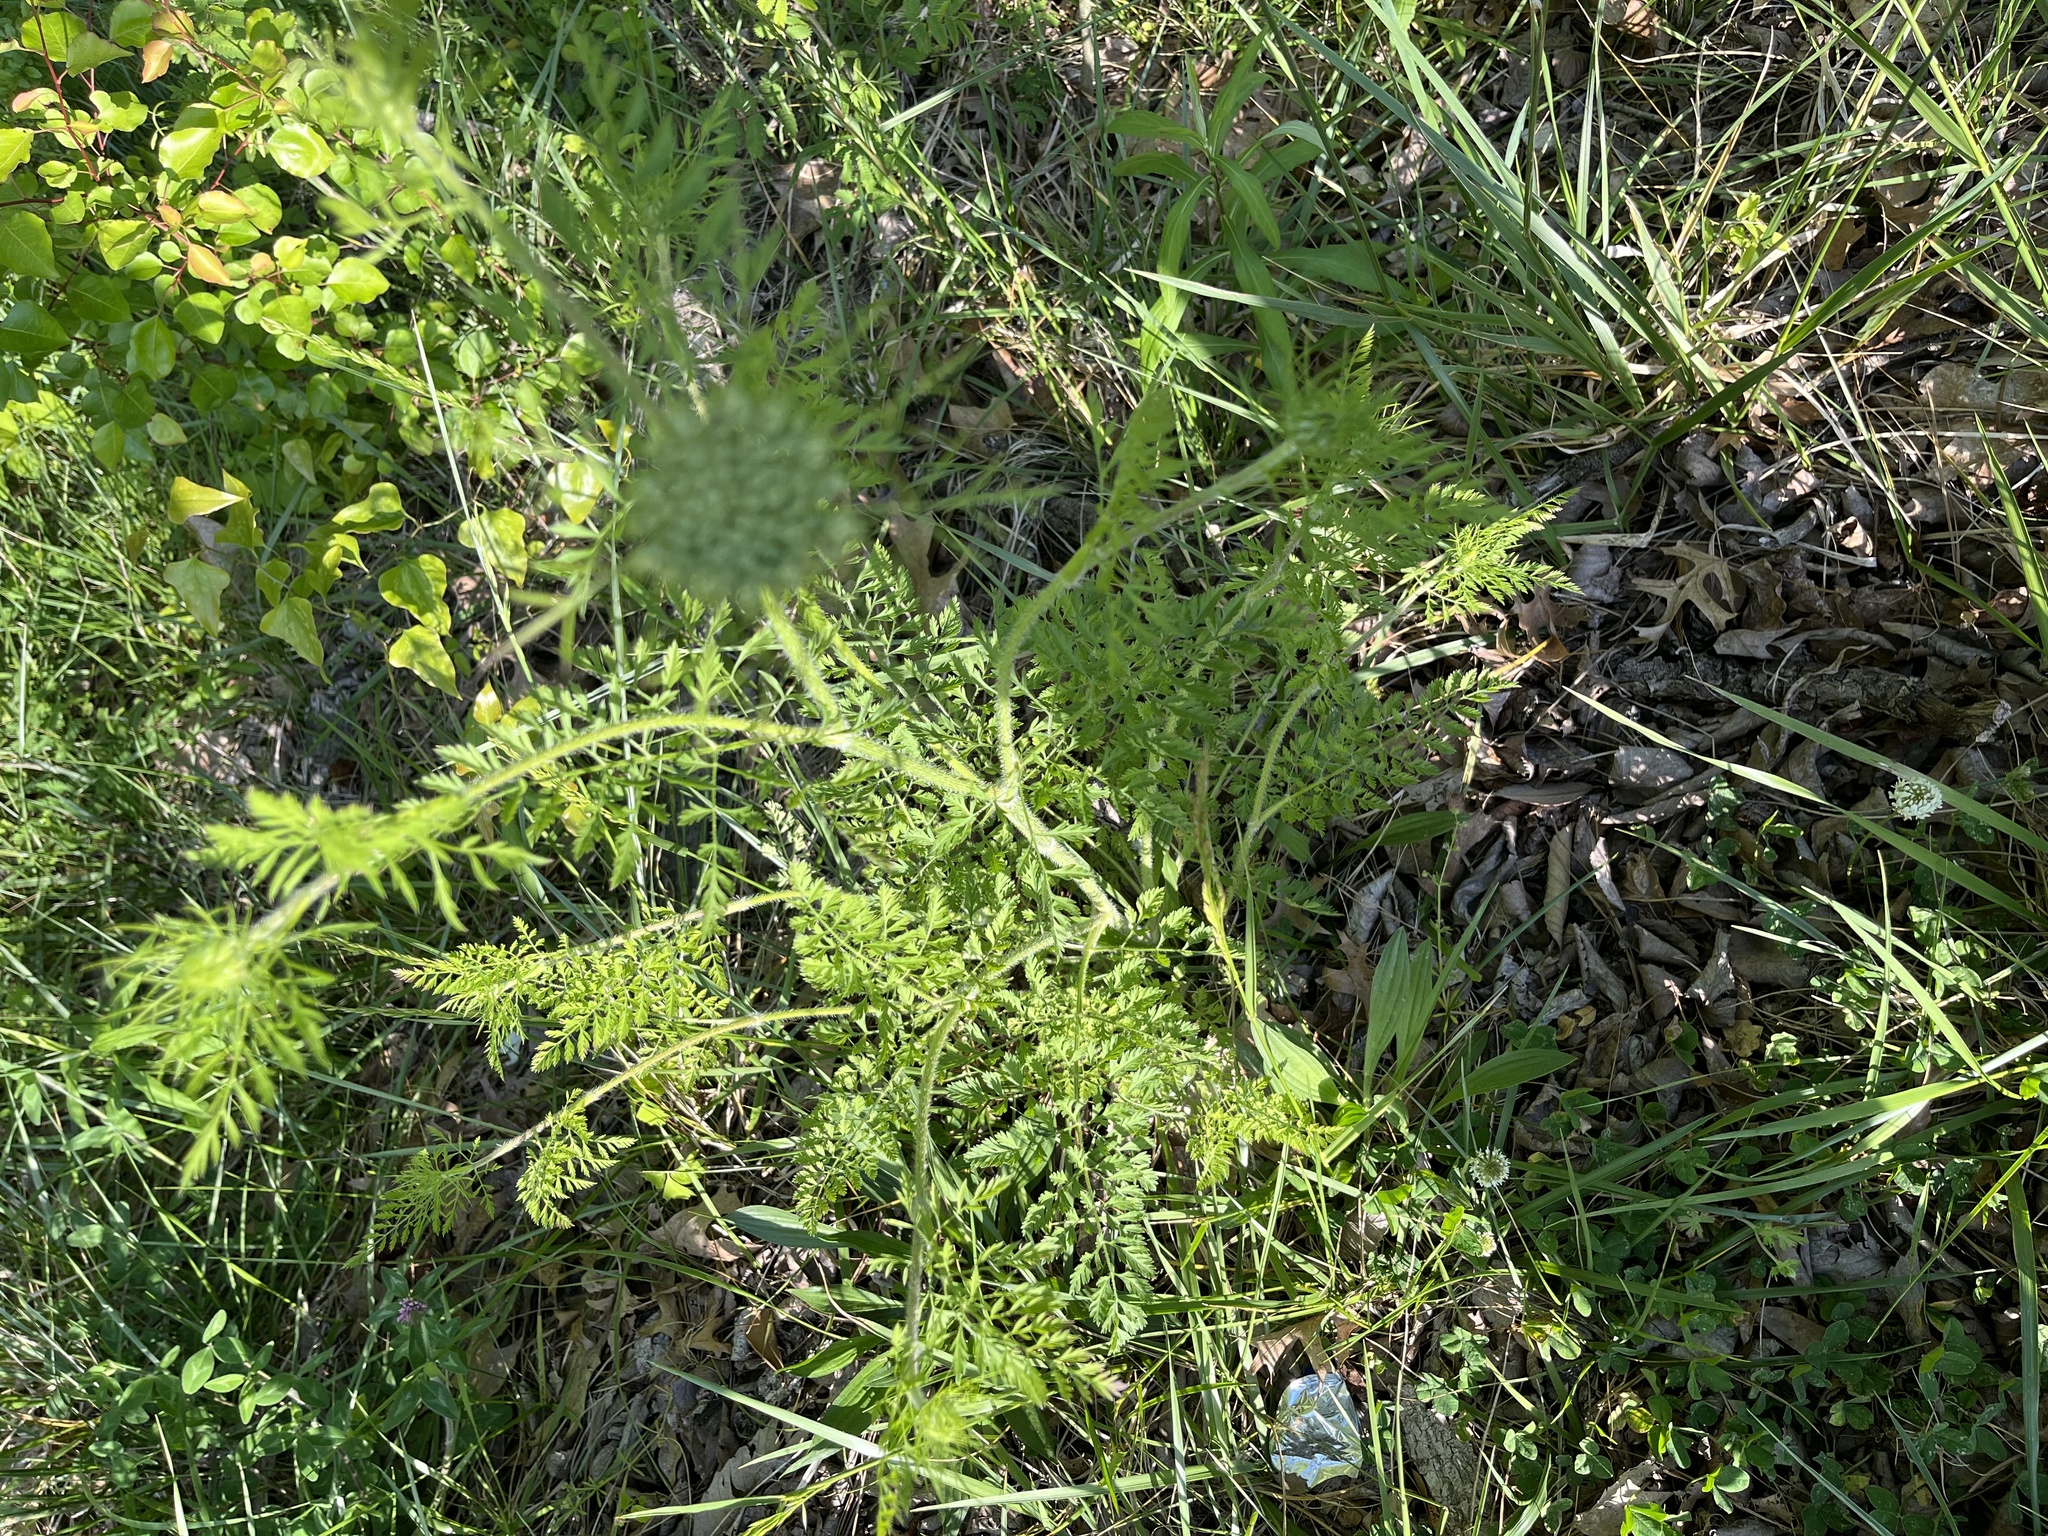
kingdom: Plantae
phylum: Tracheophyta
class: Magnoliopsida
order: Apiales
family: Apiaceae
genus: Daucus
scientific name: Daucus carota
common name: Wild carrot
